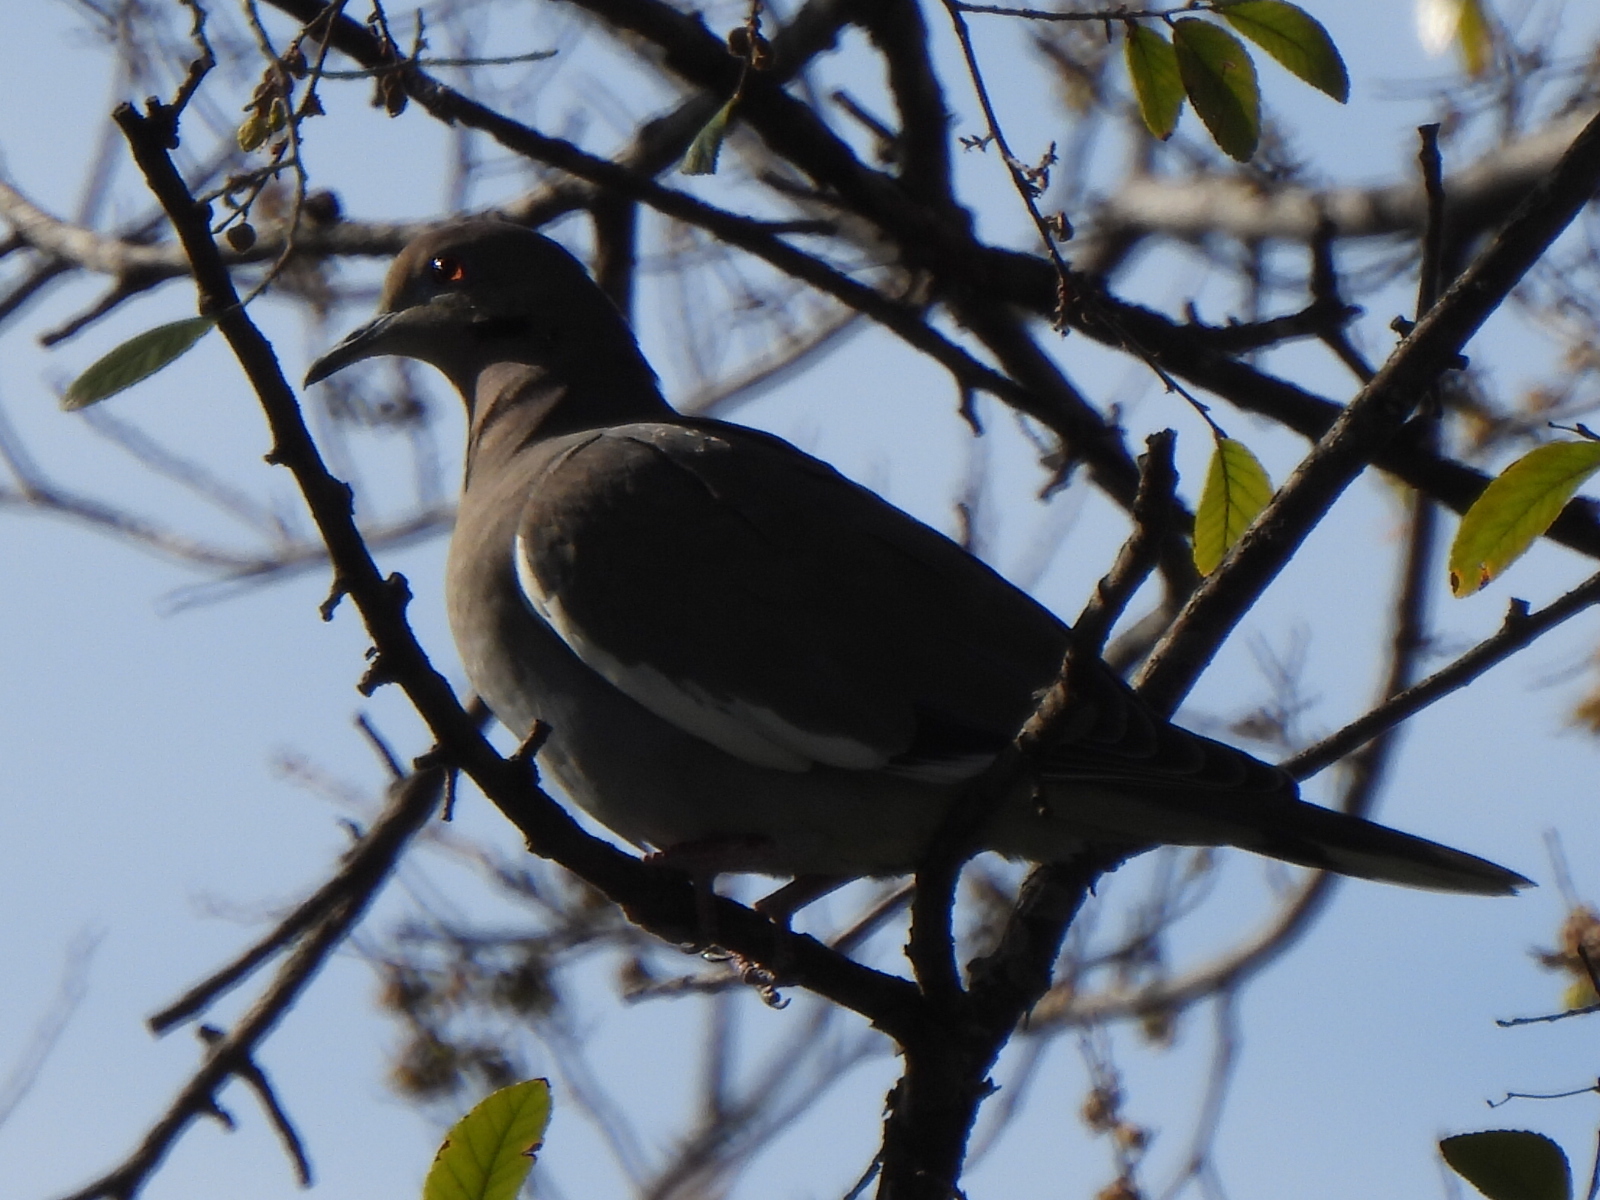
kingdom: Animalia
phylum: Chordata
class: Aves
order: Columbiformes
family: Columbidae
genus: Zenaida
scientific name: Zenaida asiatica
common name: White-winged dove
